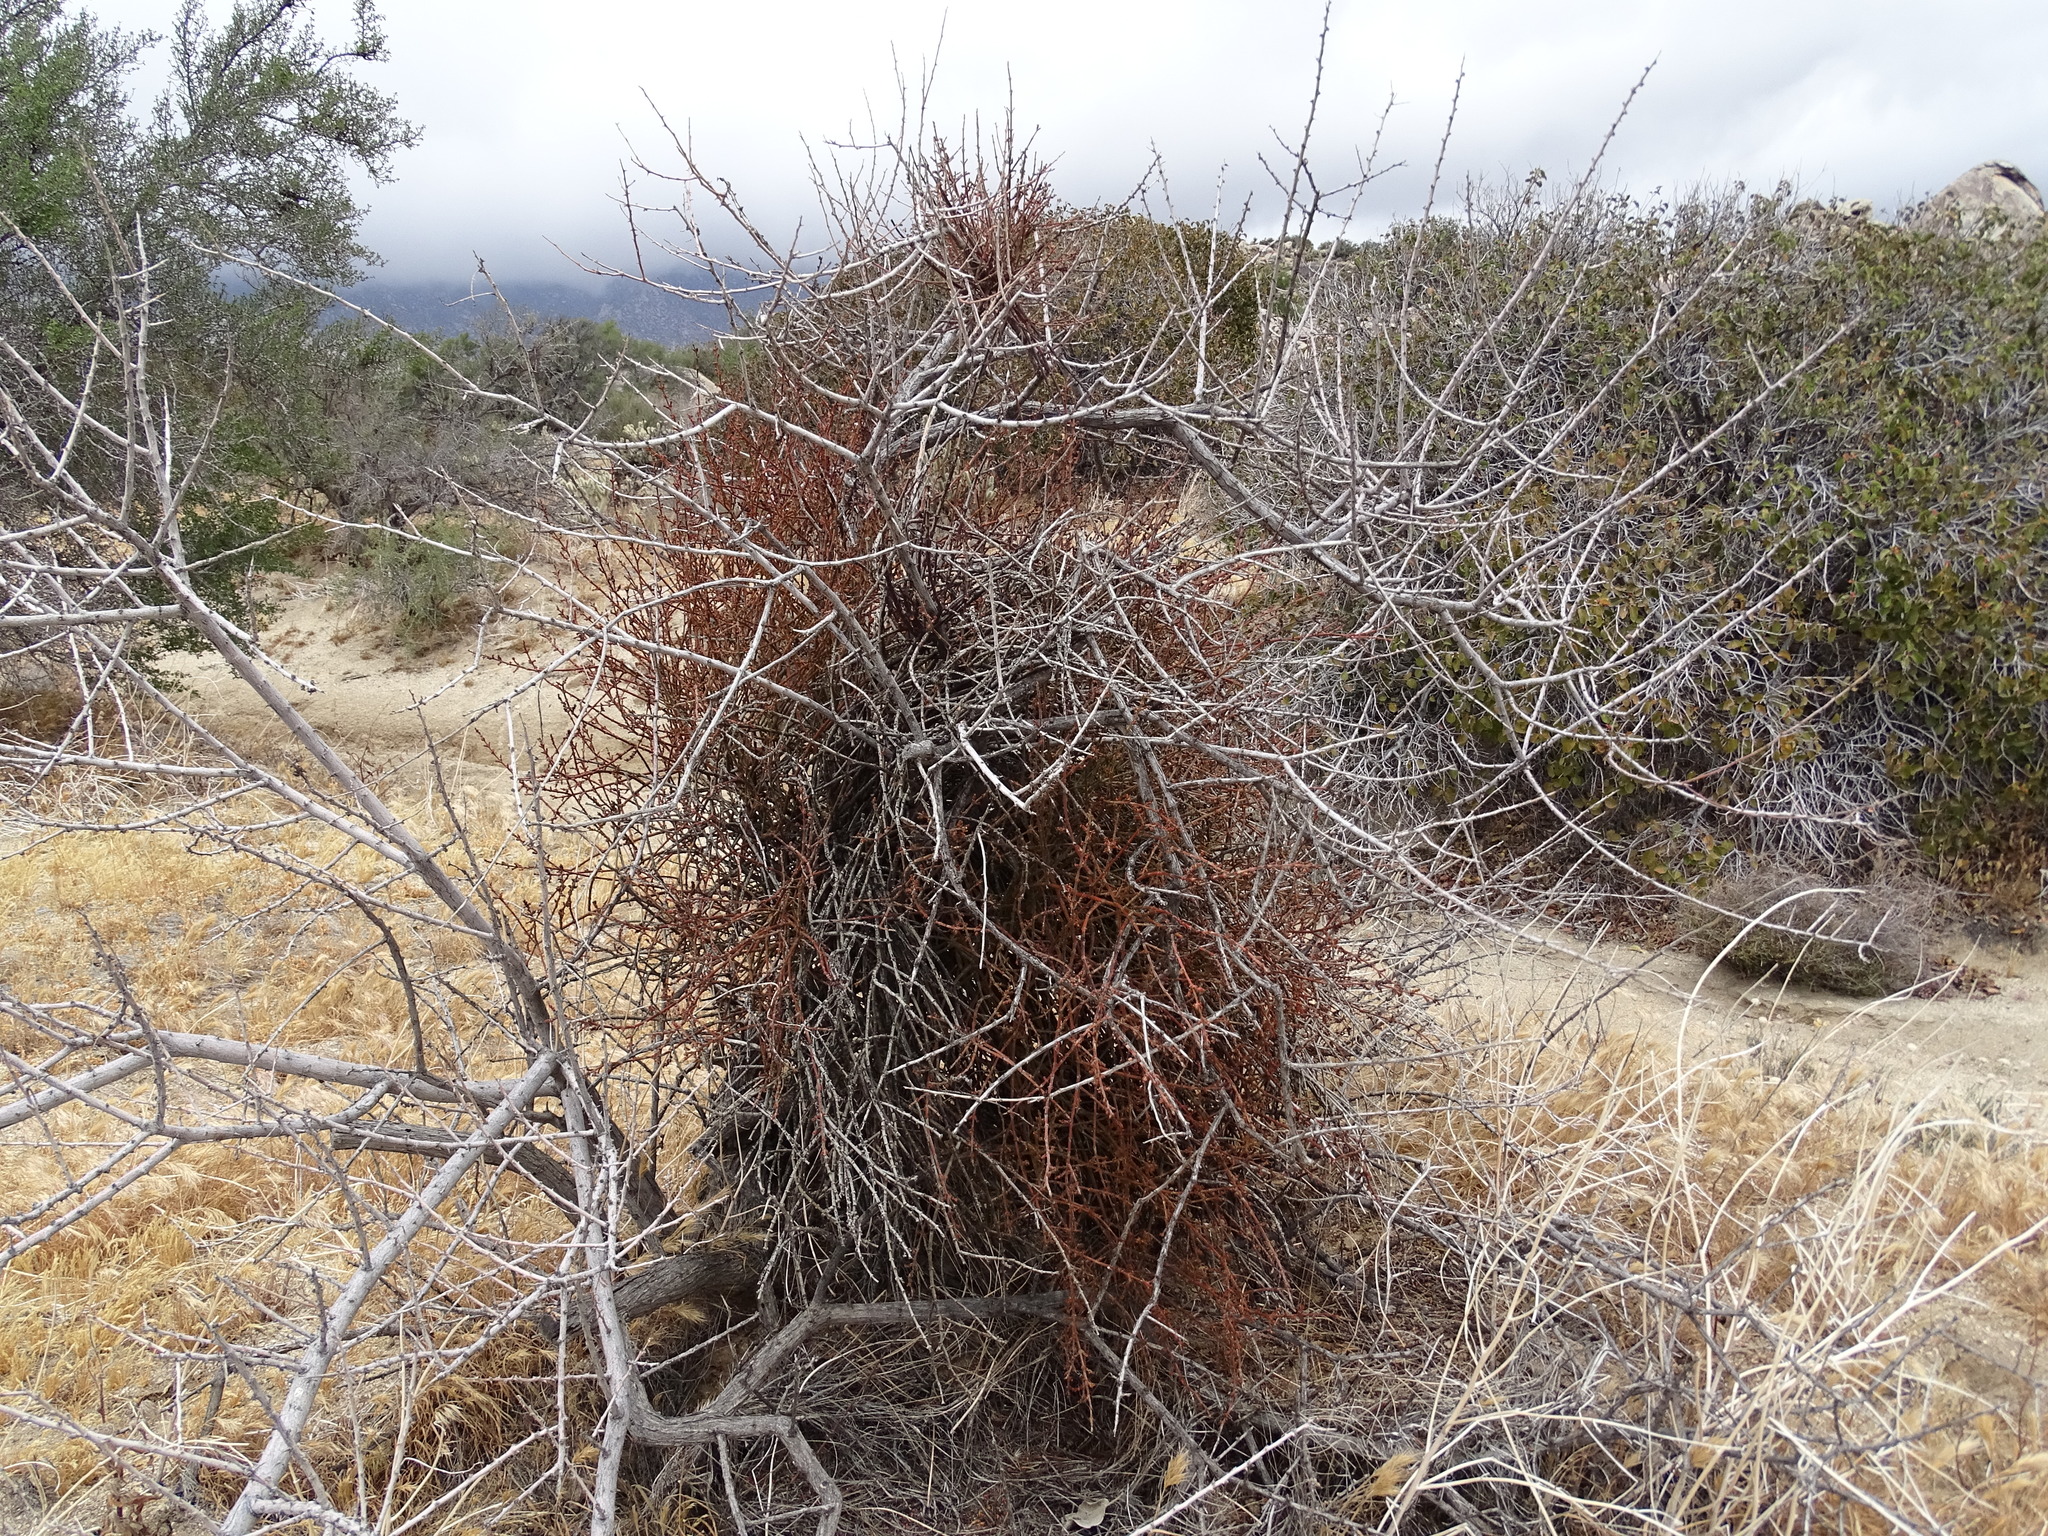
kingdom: Plantae
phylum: Tracheophyta
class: Magnoliopsida
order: Santalales
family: Viscaceae
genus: Phoradendron
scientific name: Phoradendron californicum
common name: Acacia mistletoe
